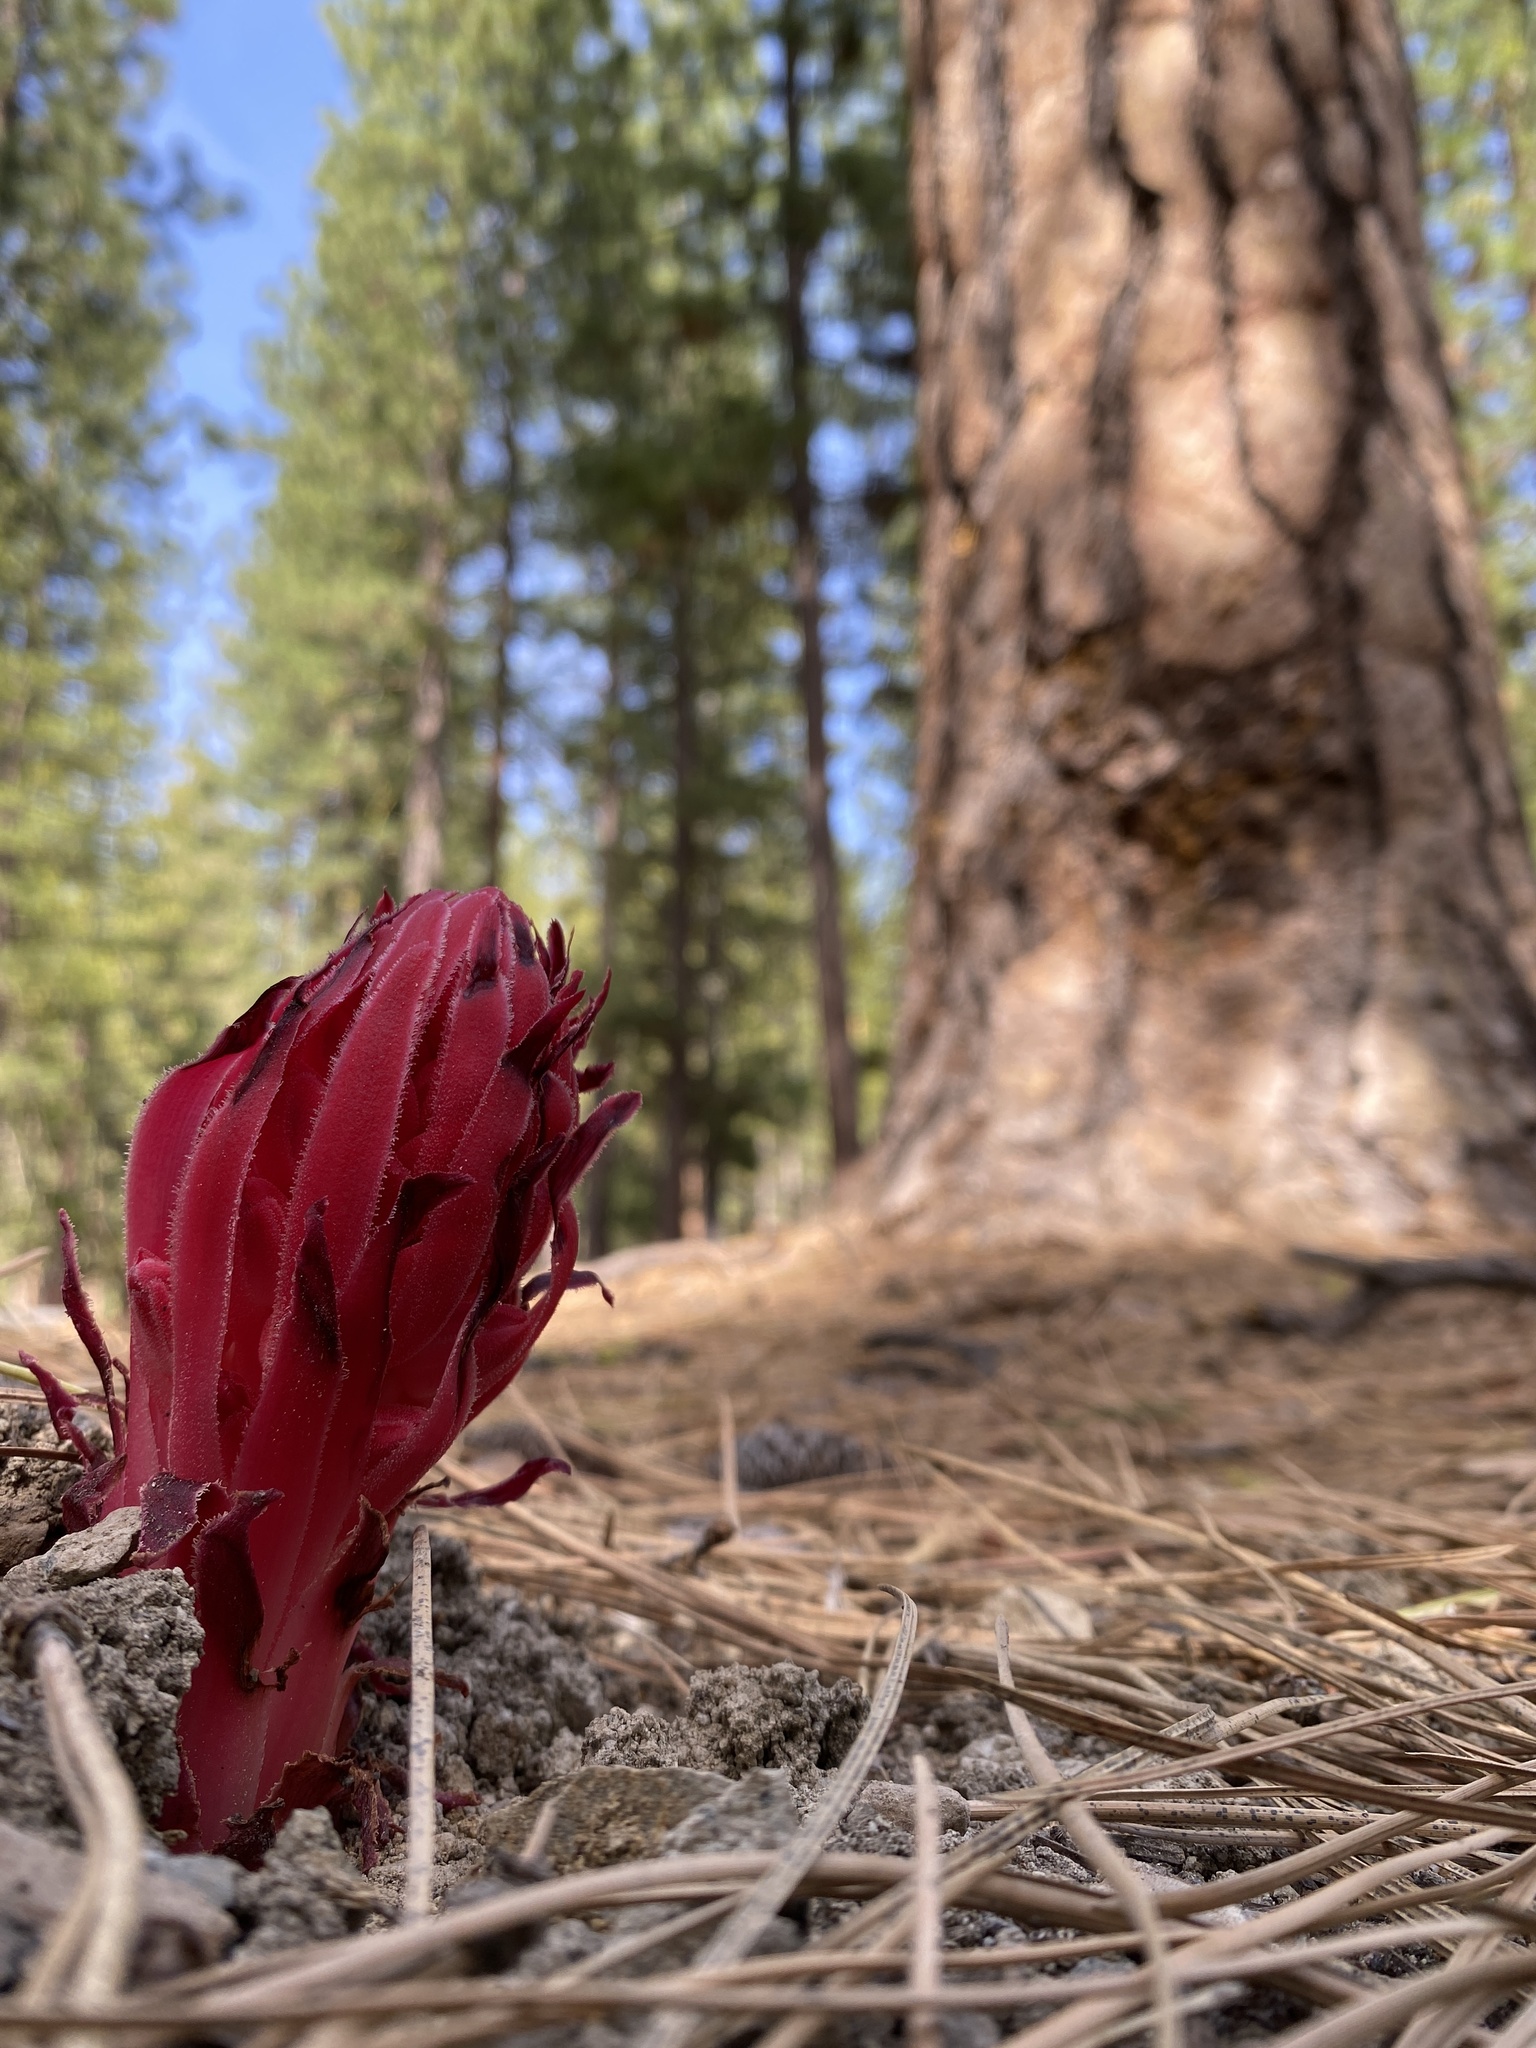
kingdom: Plantae
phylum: Tracheophyta
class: Magnoliopsida
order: Ericales
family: Ericaceae
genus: Sarcodes
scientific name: Sarcodes sanguinea
